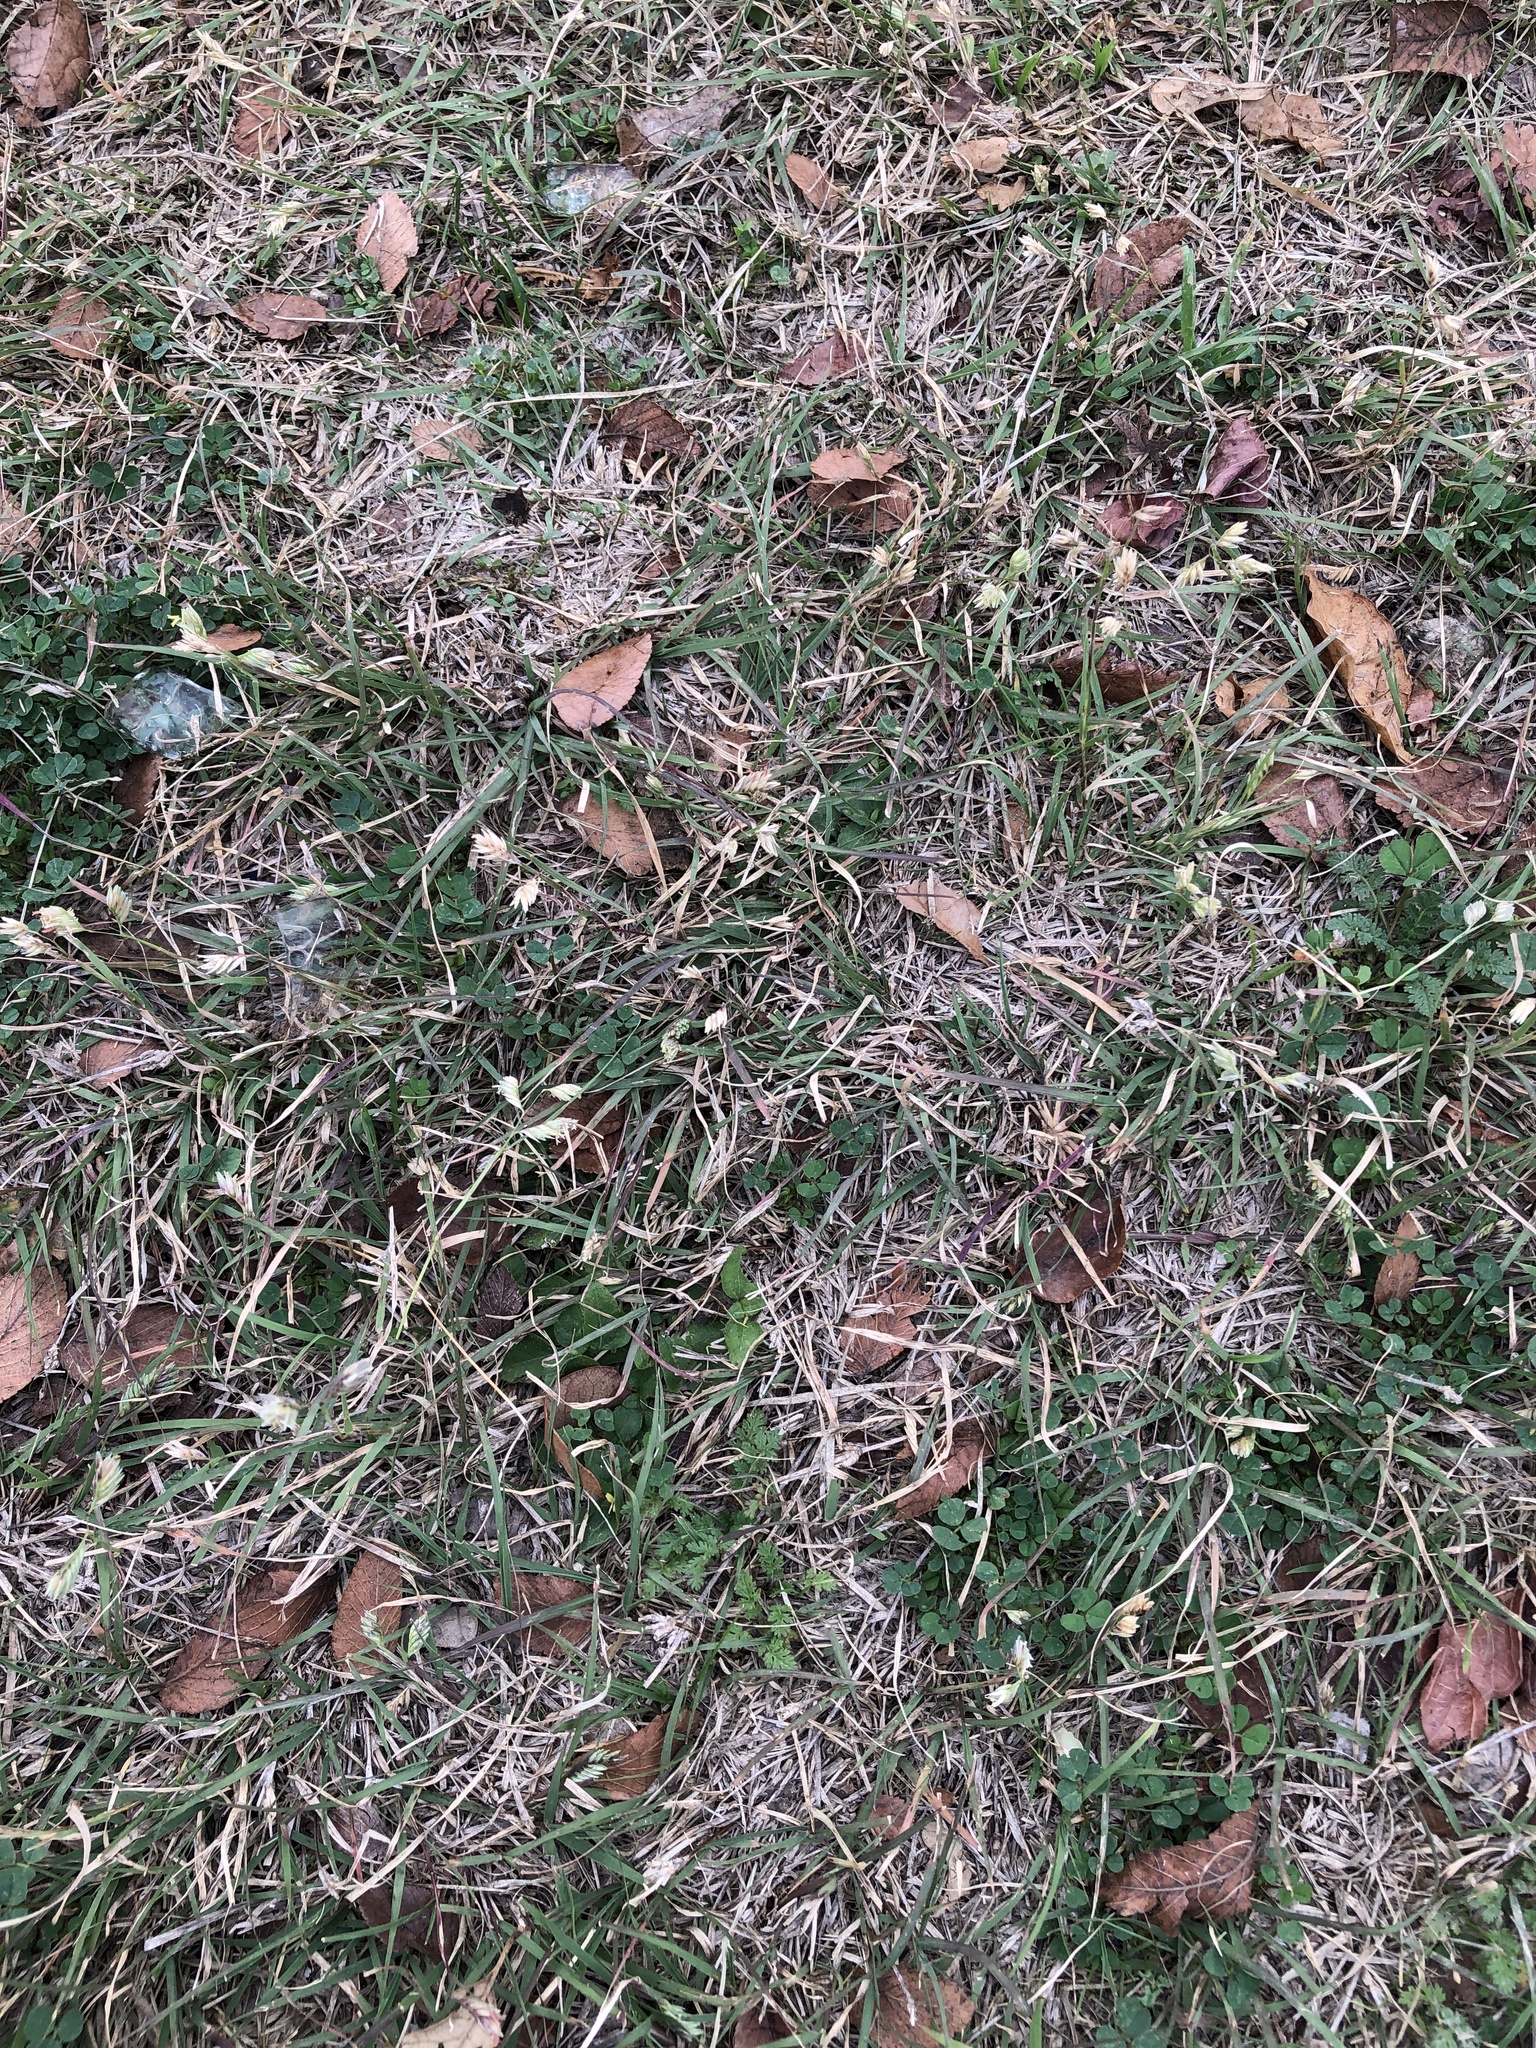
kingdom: Plantae
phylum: Tracheophyta
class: Liliopsida
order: Poales
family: Poaceae
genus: Bouteloua
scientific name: Bouteloua dactyloides
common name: Buffalo grass
